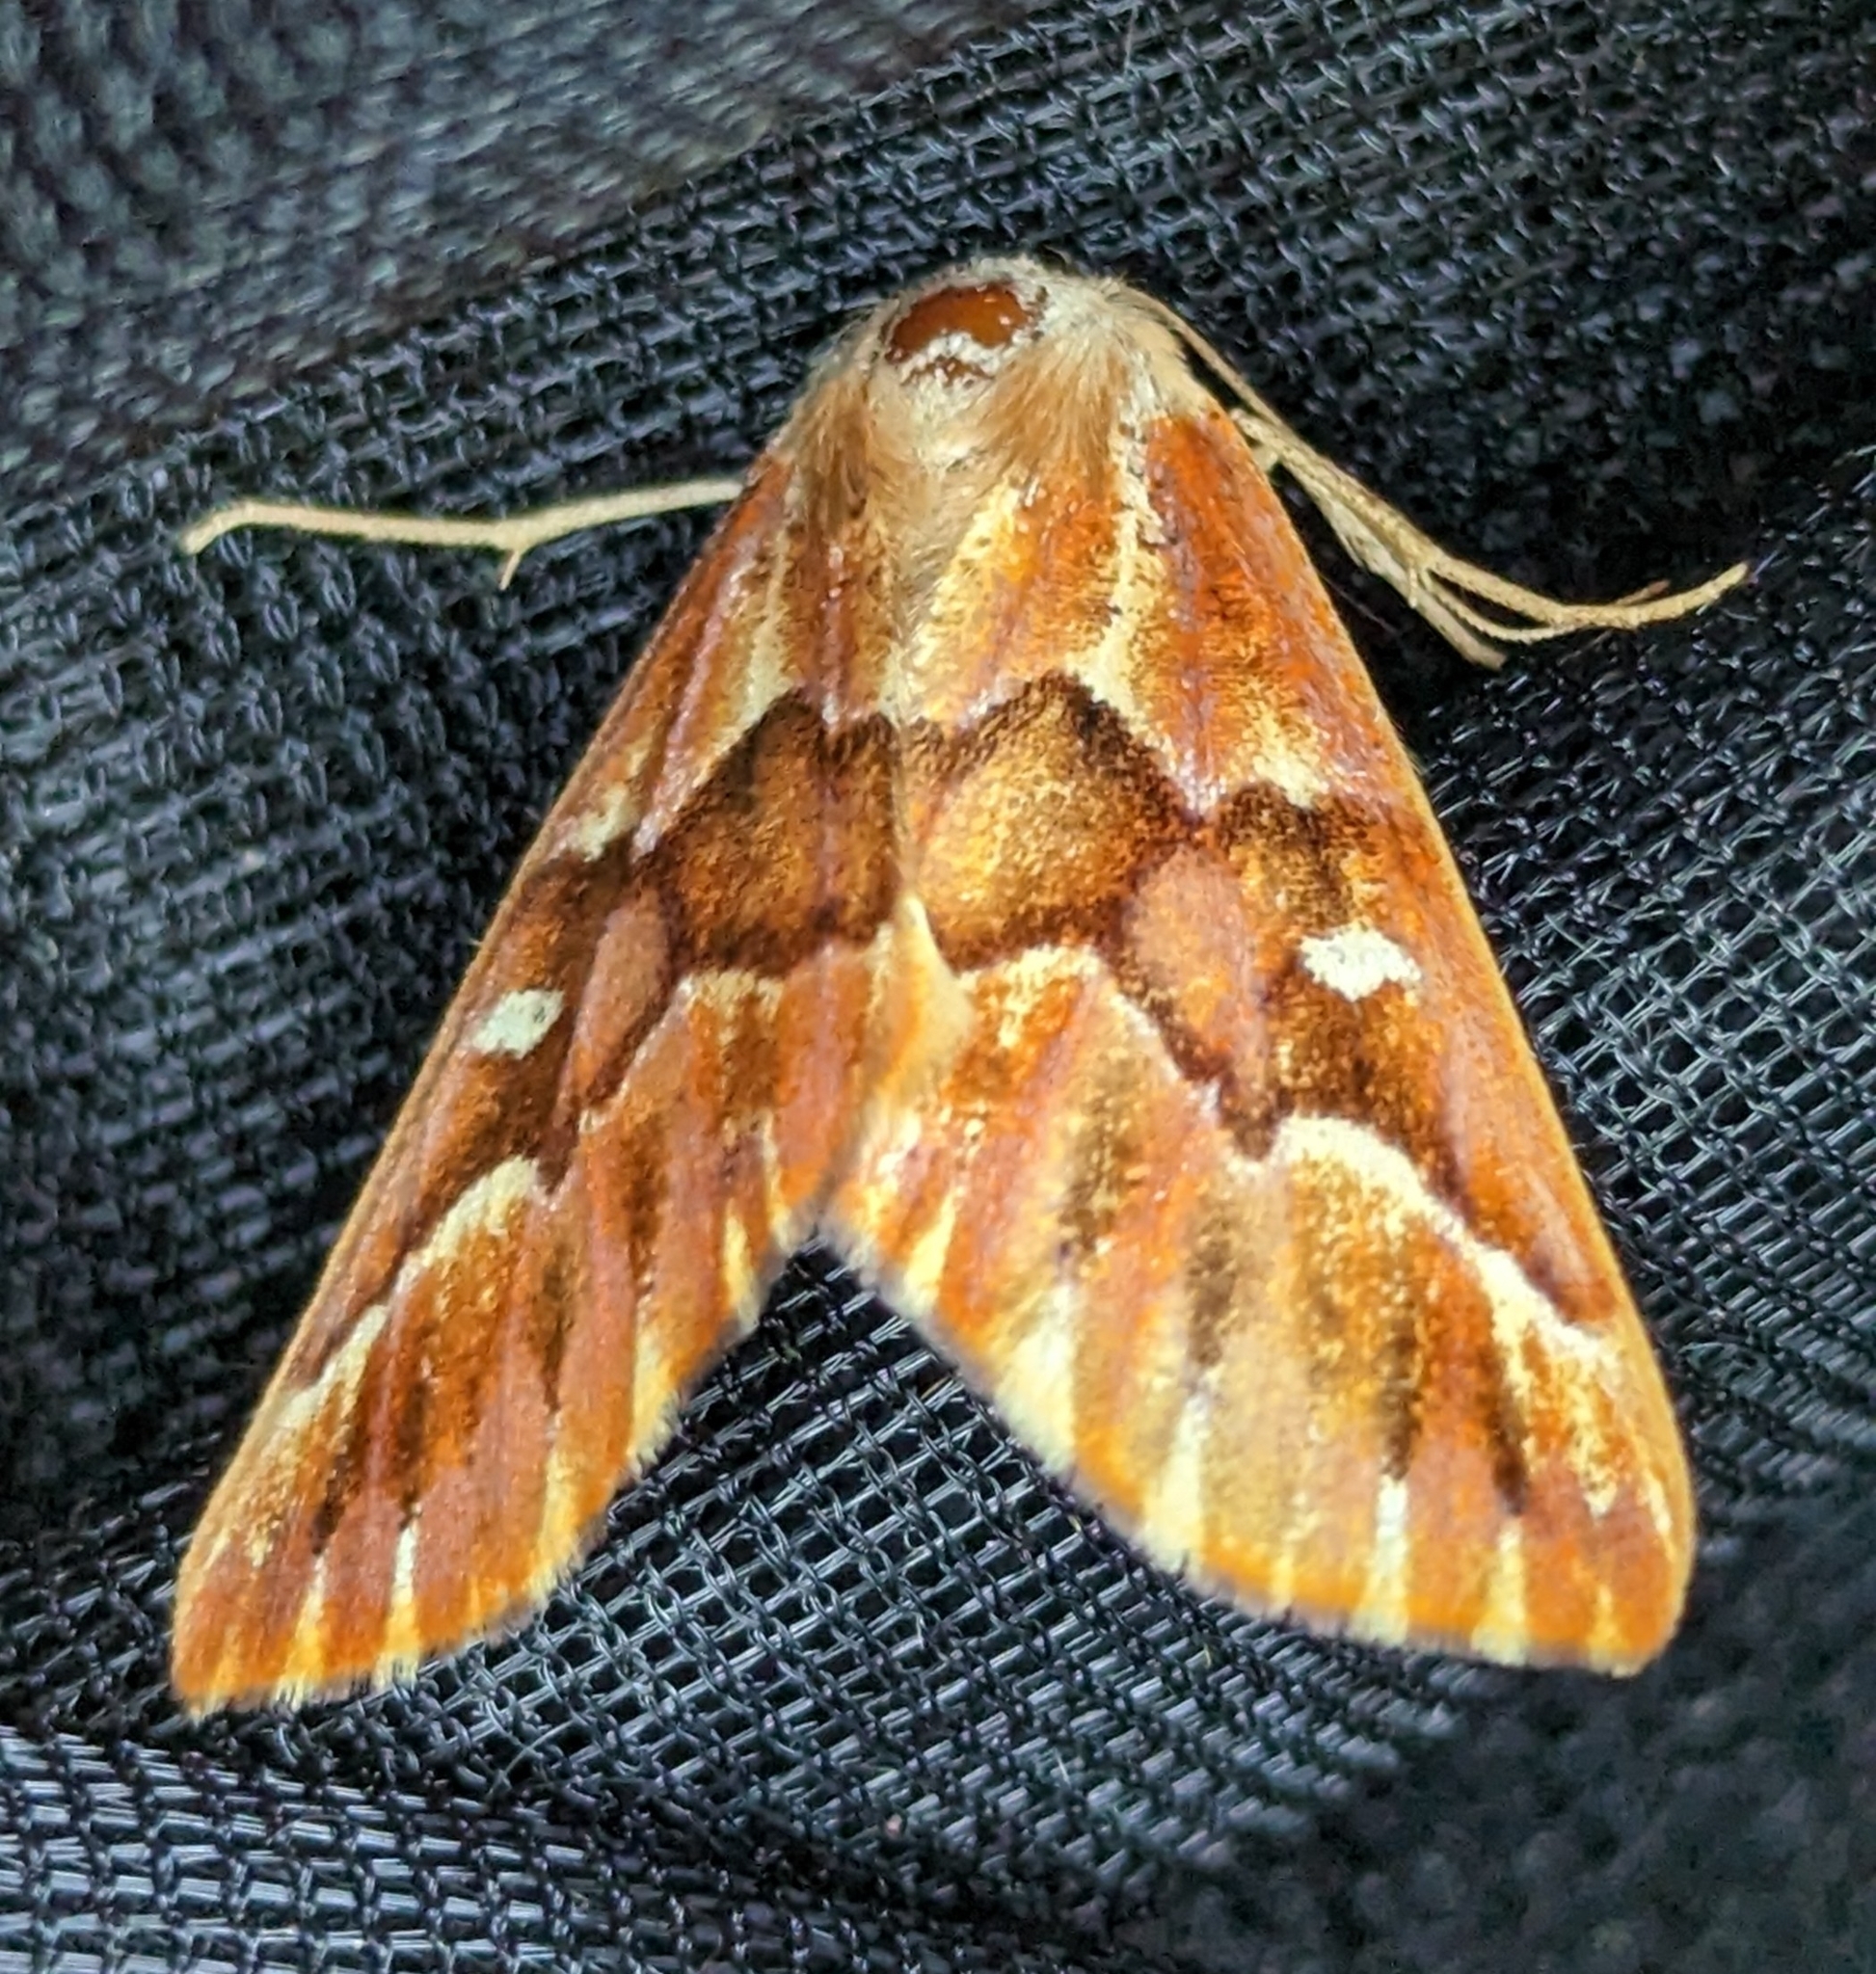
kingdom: Animalia
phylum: Arthropoda
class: Insecta
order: Lepidoptera
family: Geometridae
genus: Caripeta
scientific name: Caripeta aequaliaria
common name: Red girdle moth
